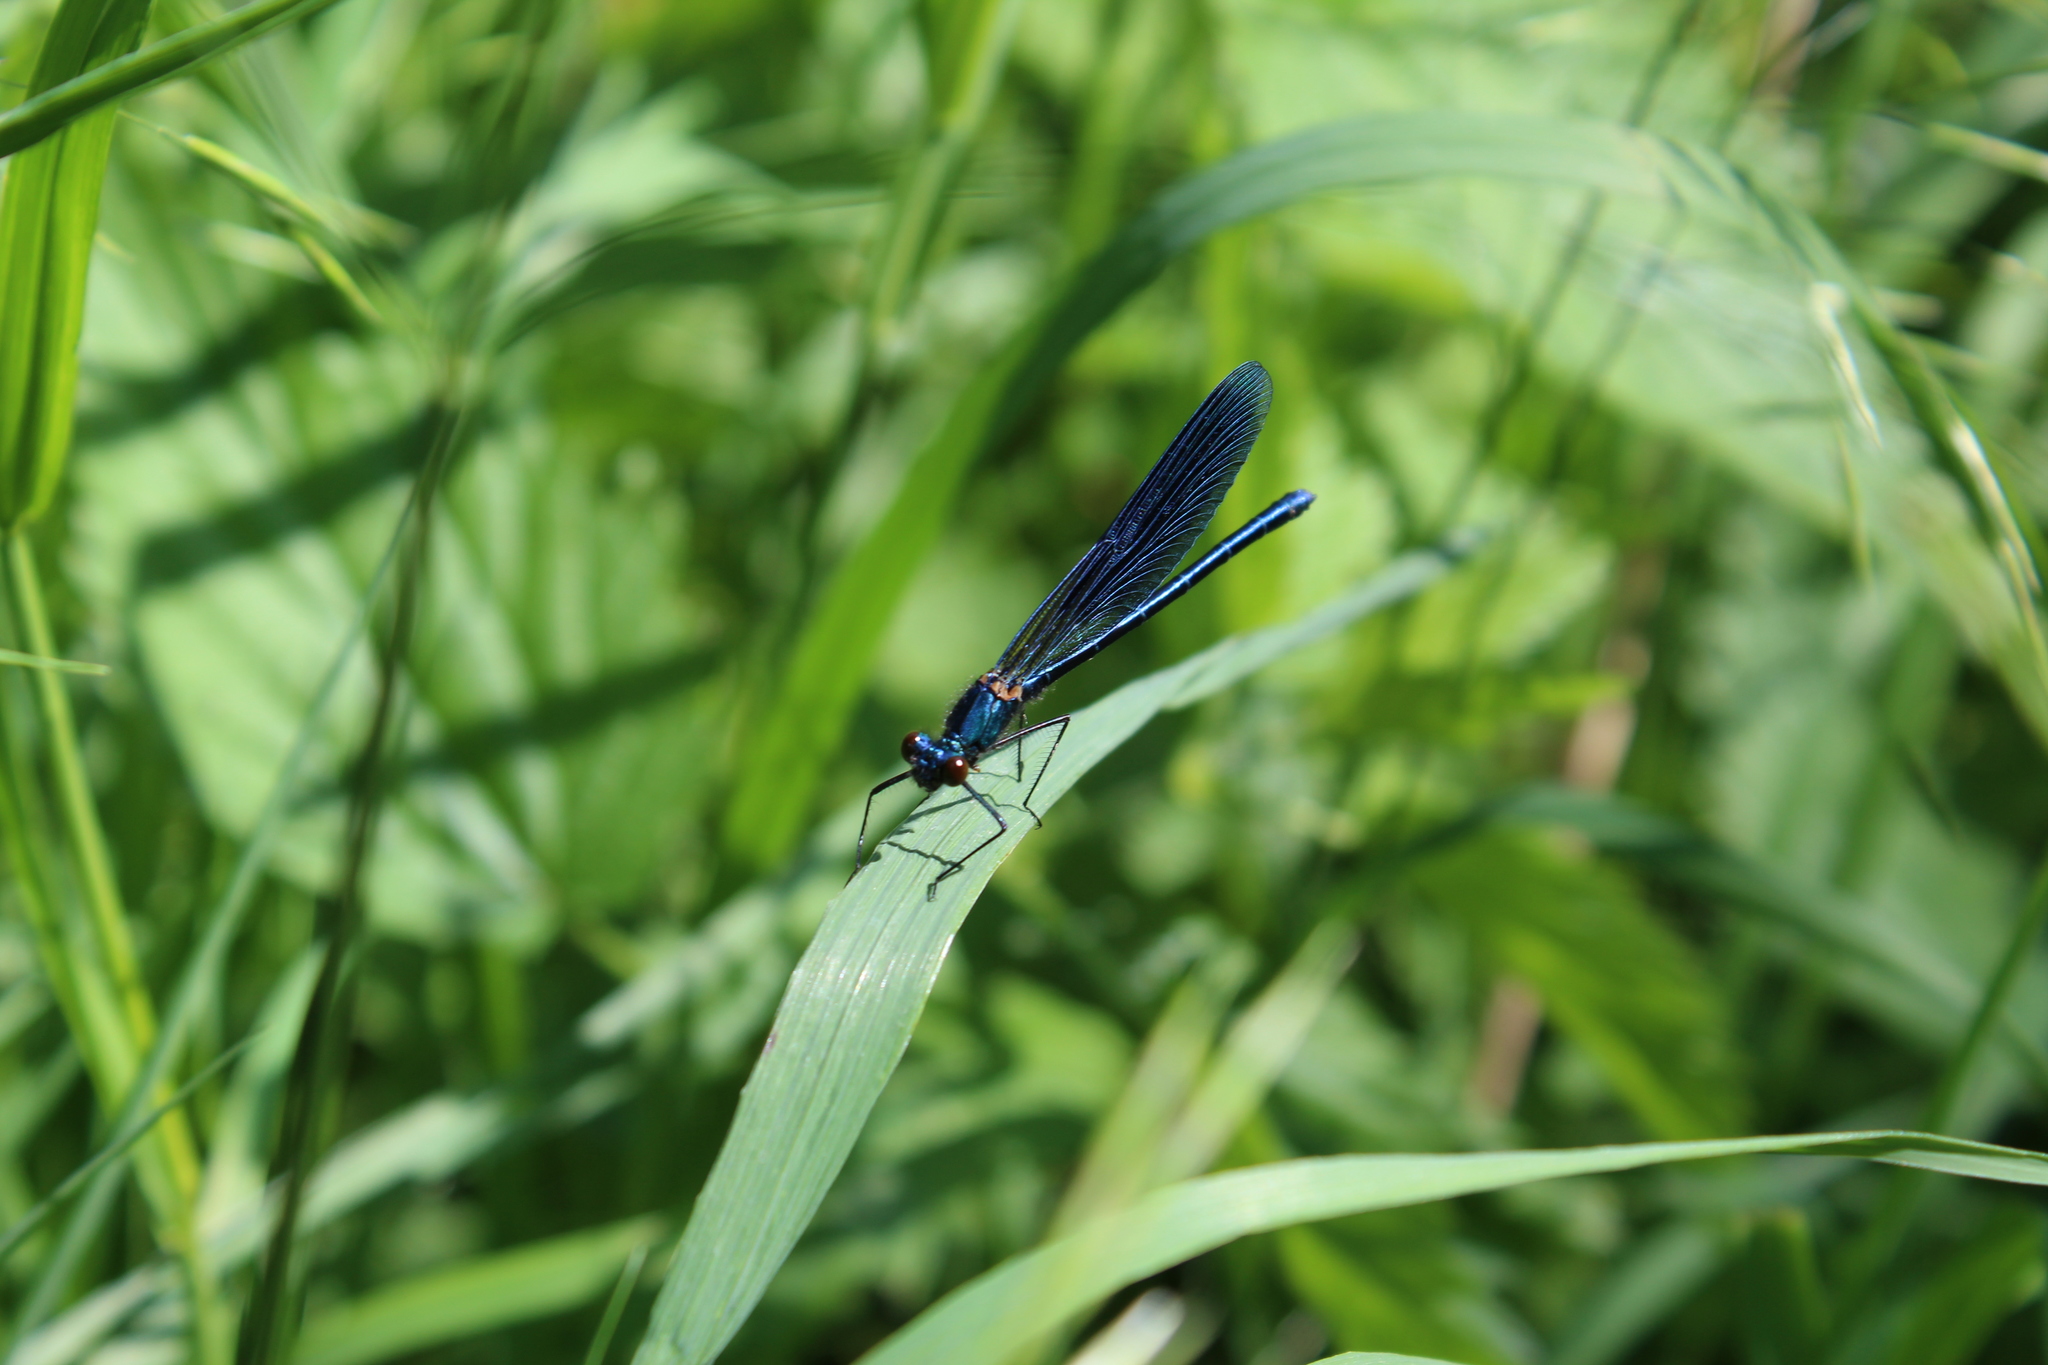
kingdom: Animalia
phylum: Arthropoda
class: Insecta
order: Odonata
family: Calopterygidae
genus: Calopteryx
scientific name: Calopteryx splendens
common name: Banded demoiselle
